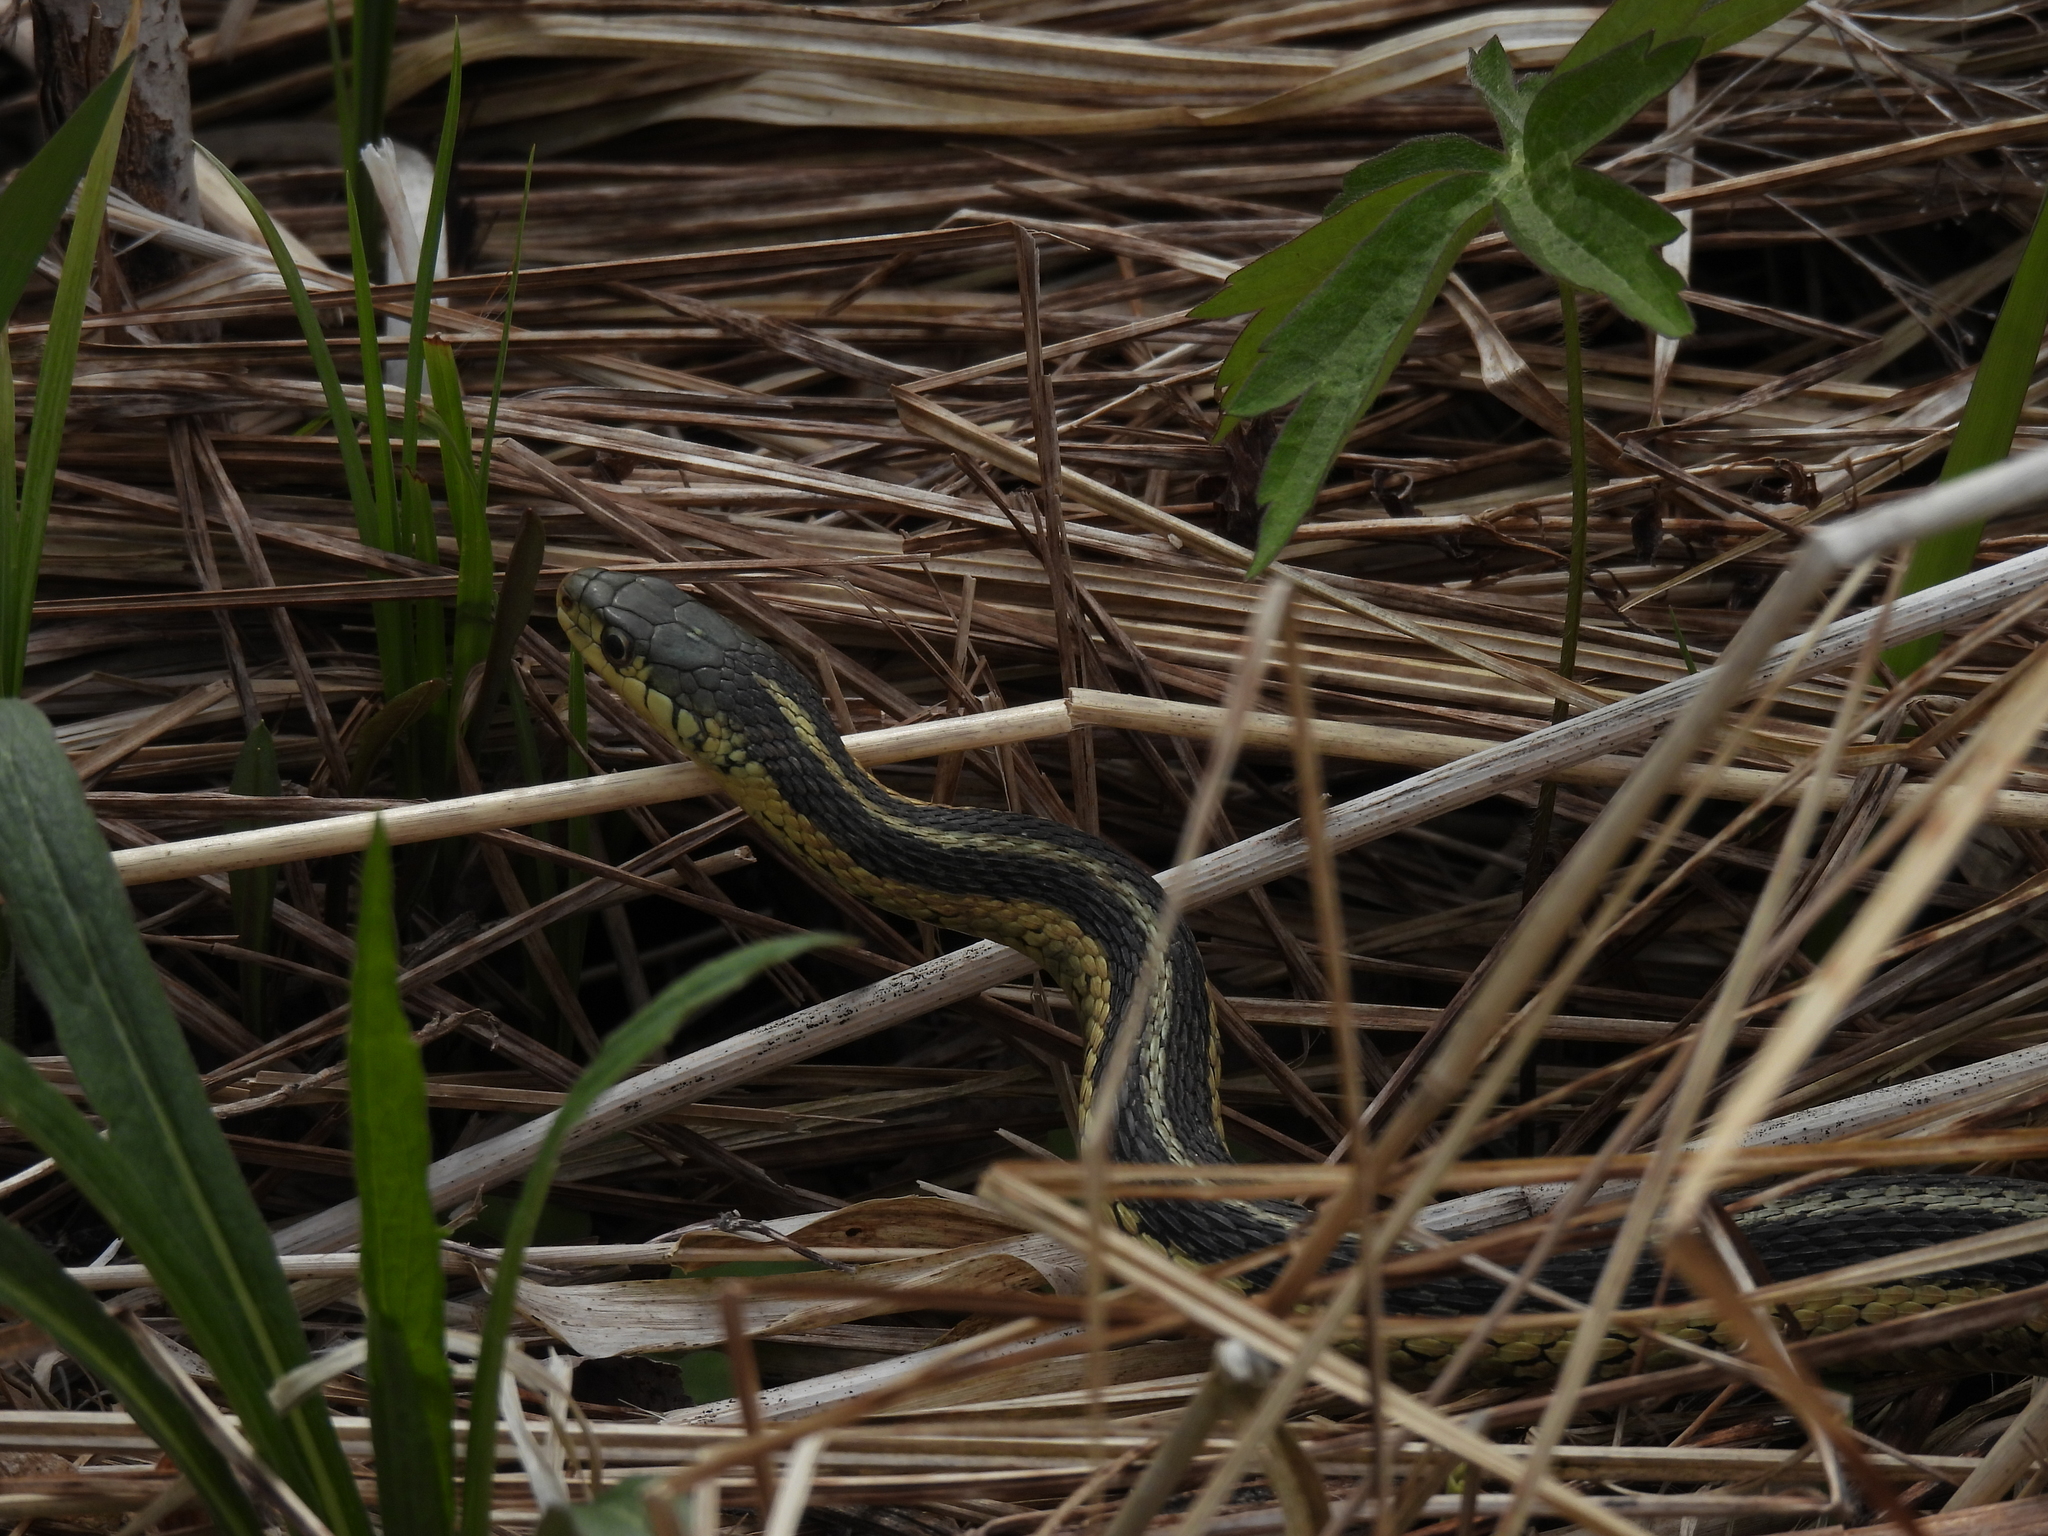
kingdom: Animalia
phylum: Chordata
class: Squamata
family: Colubridae
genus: Thamnophis
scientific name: Thamnophis sirtalis
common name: Common garter snake
